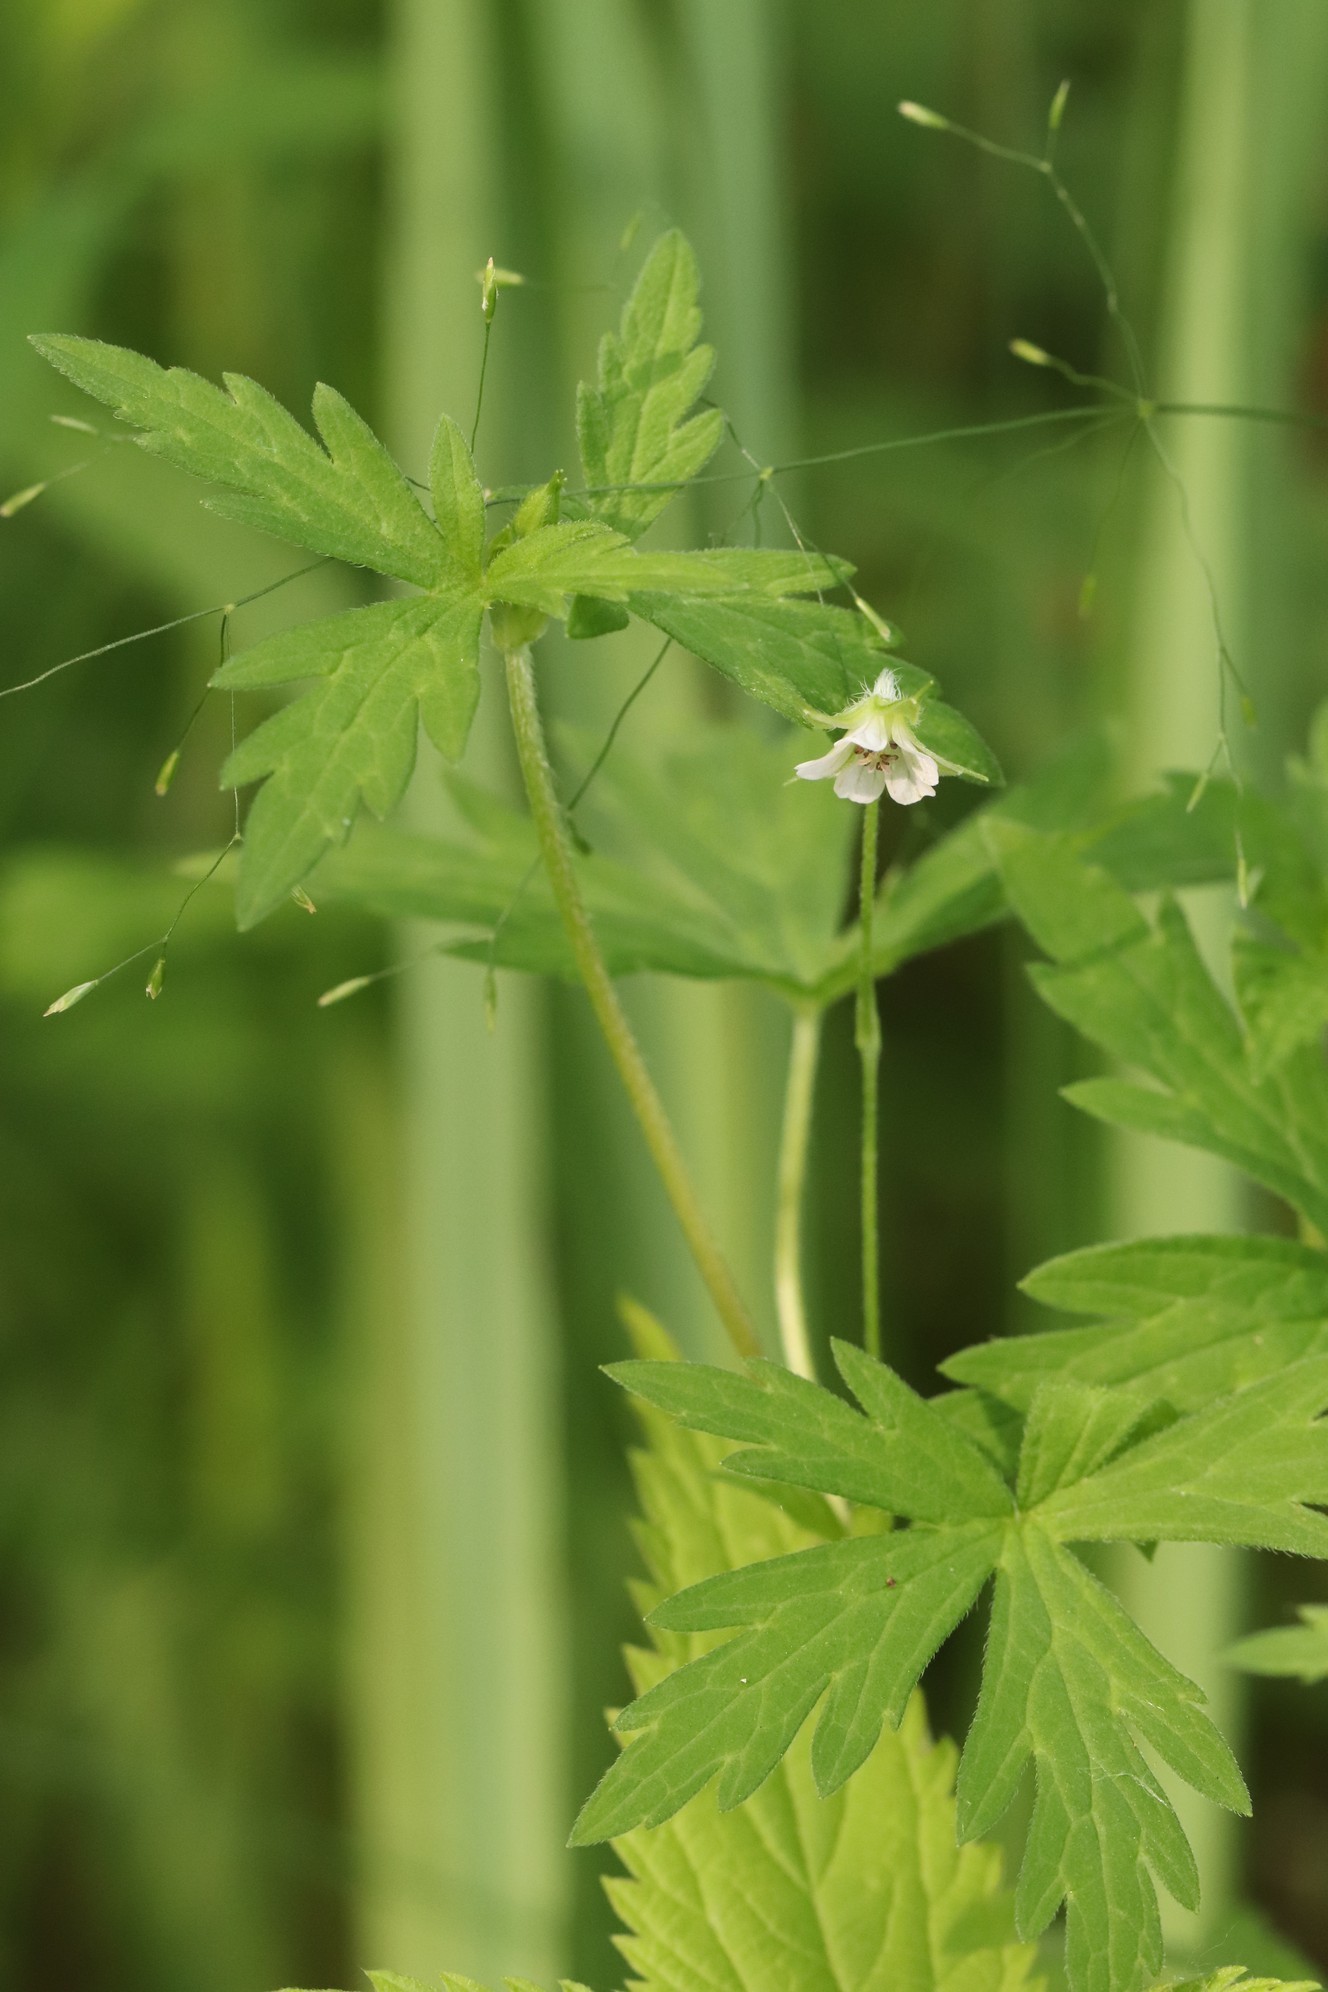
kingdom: Plantae
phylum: Tracheophyta
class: Magnoliopsida
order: Geraniales
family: Geraniaceae
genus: Geranium
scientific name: Geranium sibiricum
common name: Siberian crane's-bill
